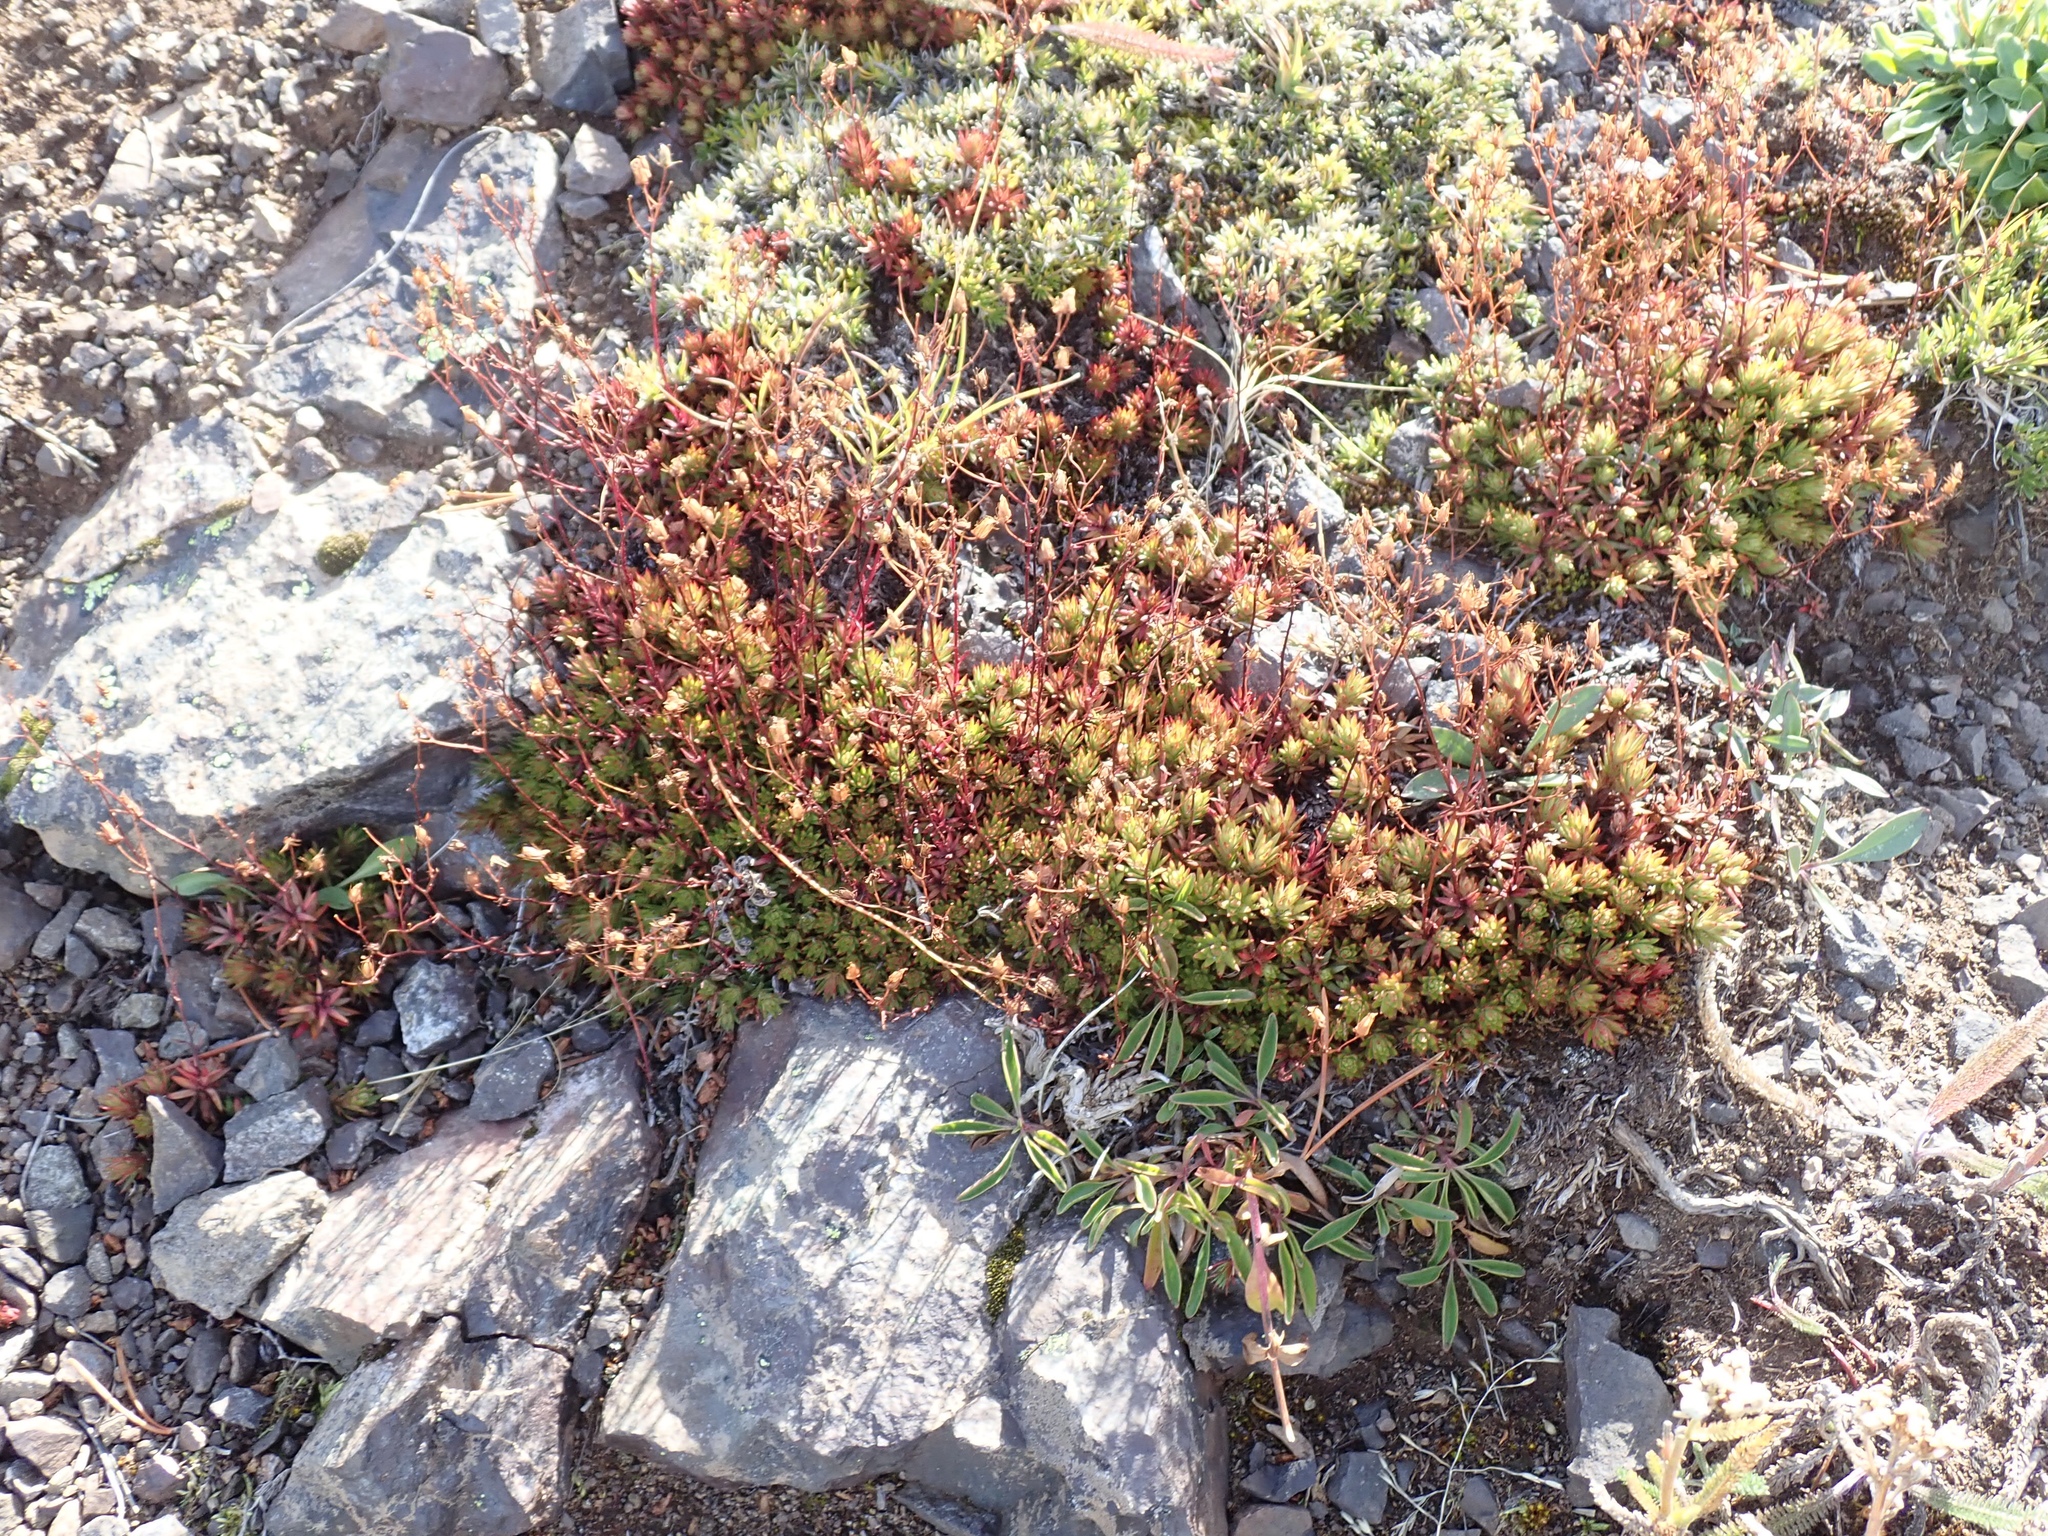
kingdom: Plantae
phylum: Tracheophyta
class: Magnoliopsida
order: Saxifragales
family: Saxifragaceae
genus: Saxifraga
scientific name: Saxifraga bronchialis
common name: Matted saxifrage
